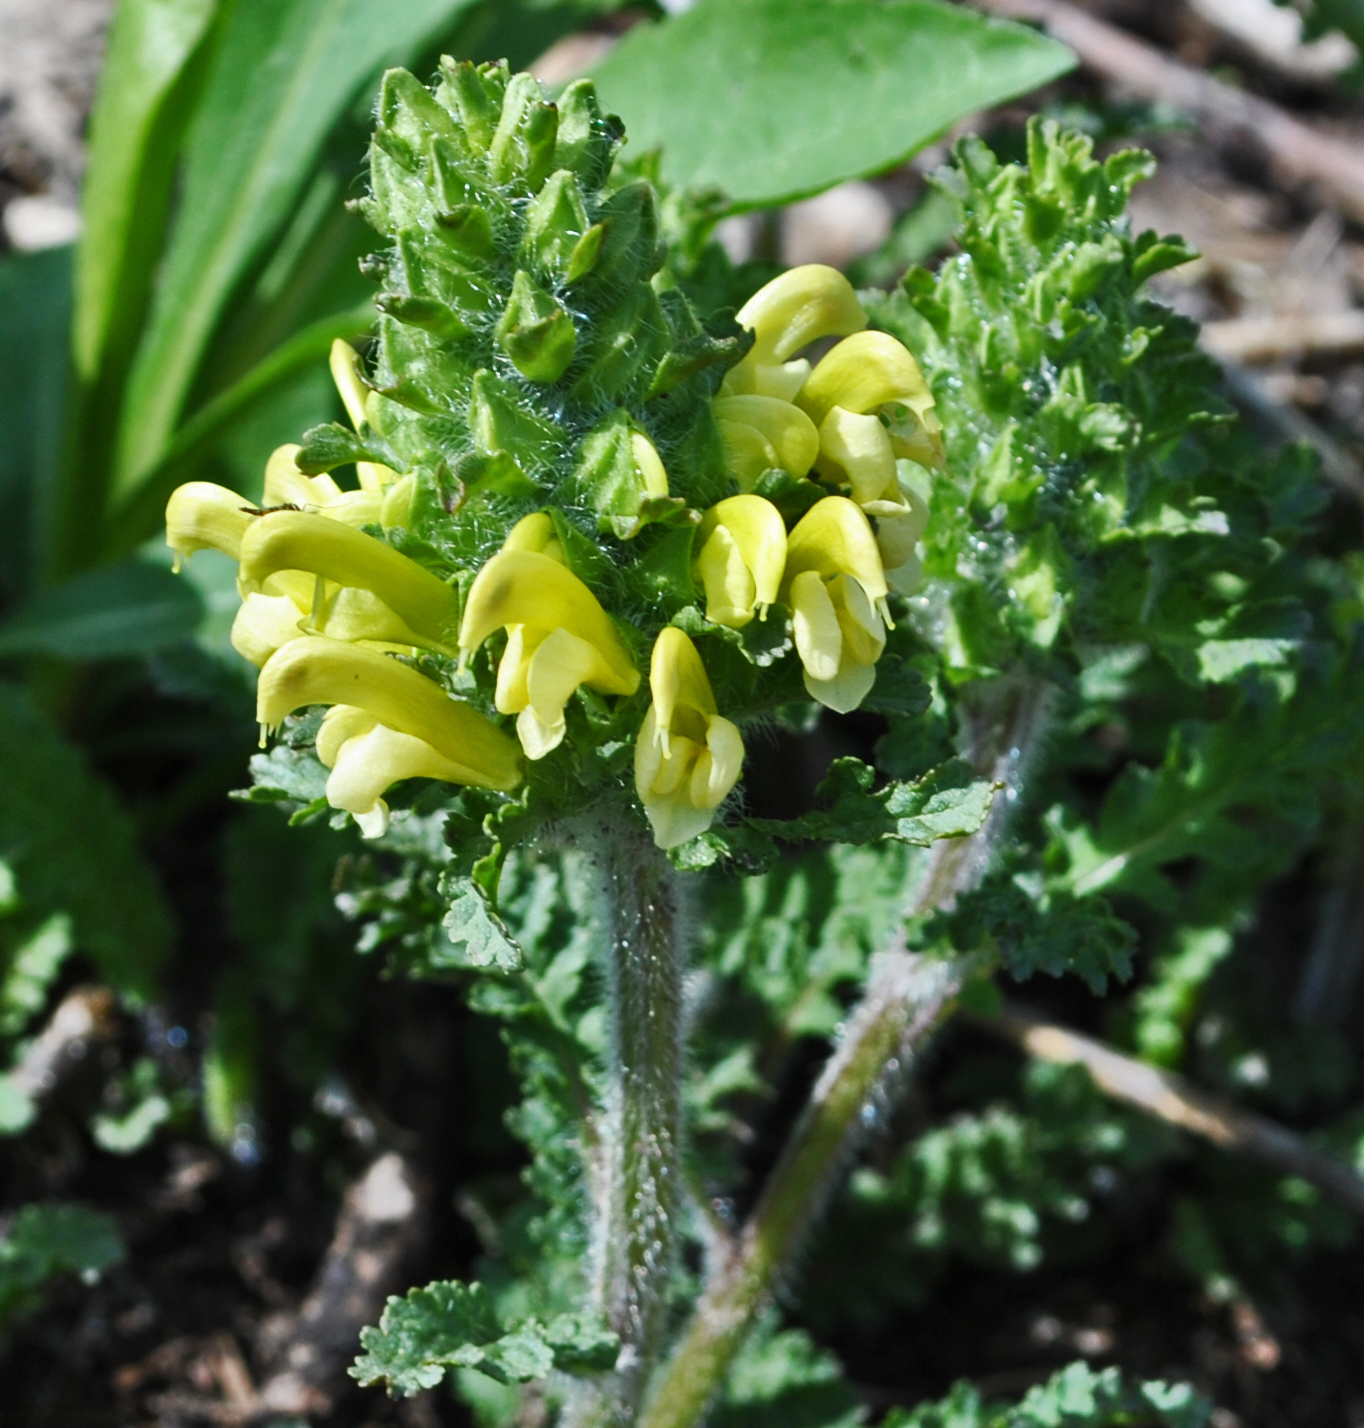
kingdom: Plantae
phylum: Tracheophyta
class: Magnoliopsida
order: Lamiales
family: Orobanchaceae
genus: Pedicularis
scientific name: Pedicularis canadensis
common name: Early lousewort
